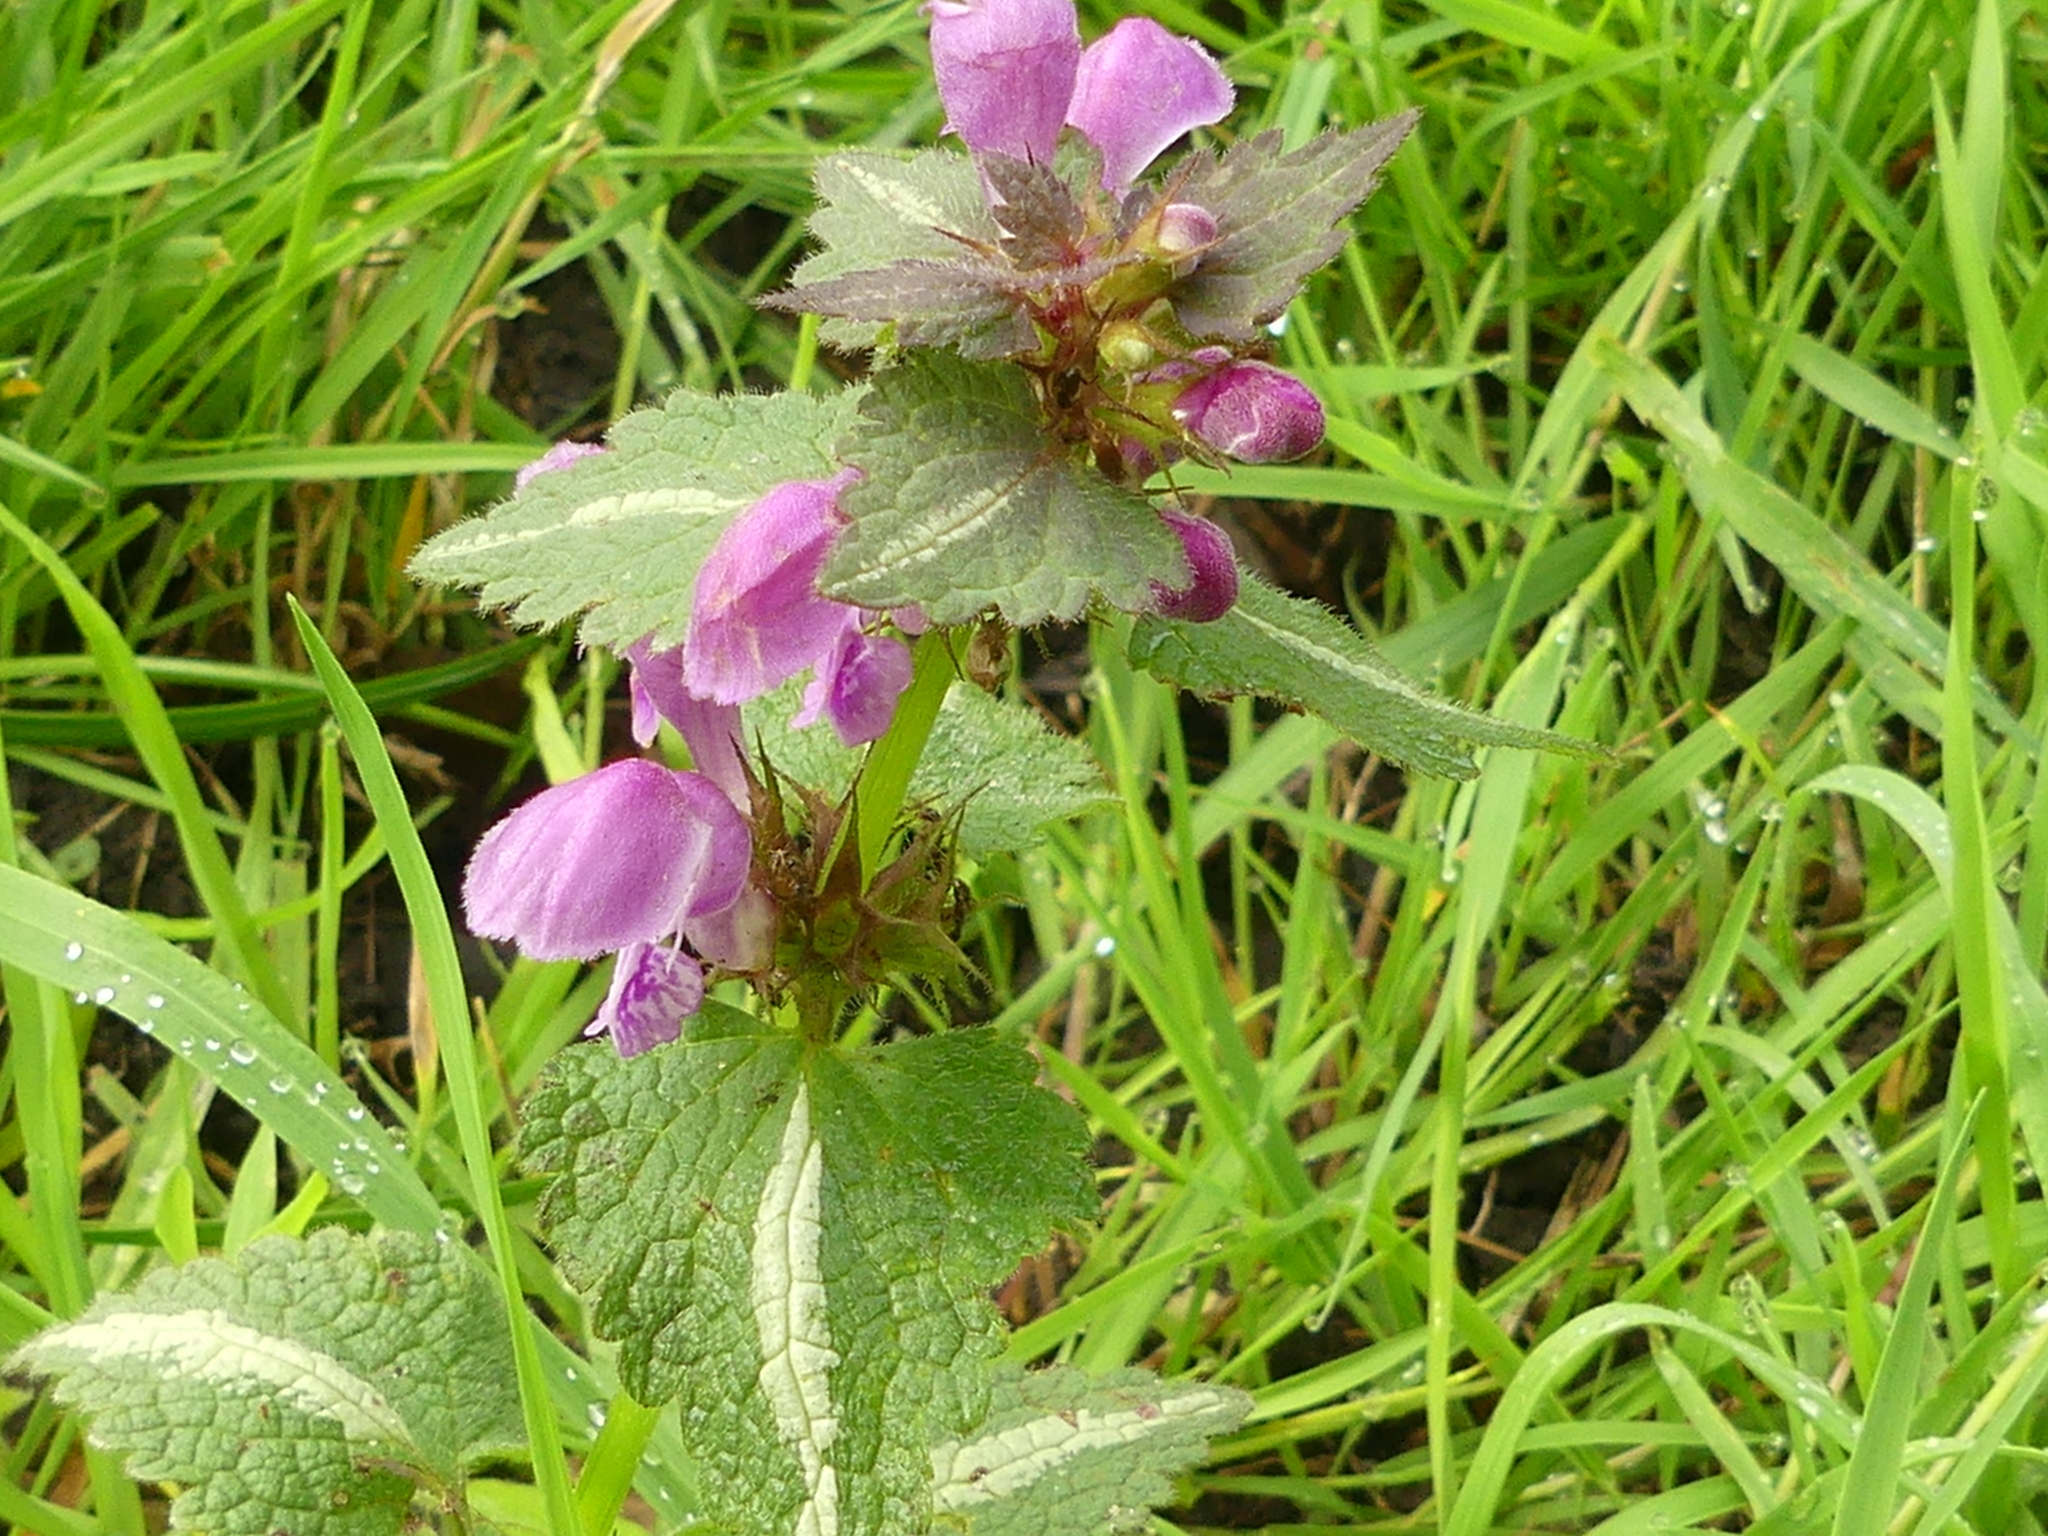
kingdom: Plantae
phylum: Tracheophyta
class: Magnoliopsida
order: Lamiales
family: Lamiaceae
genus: Lamium
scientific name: Lamium maculatum
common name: Spotted dead-nettle
